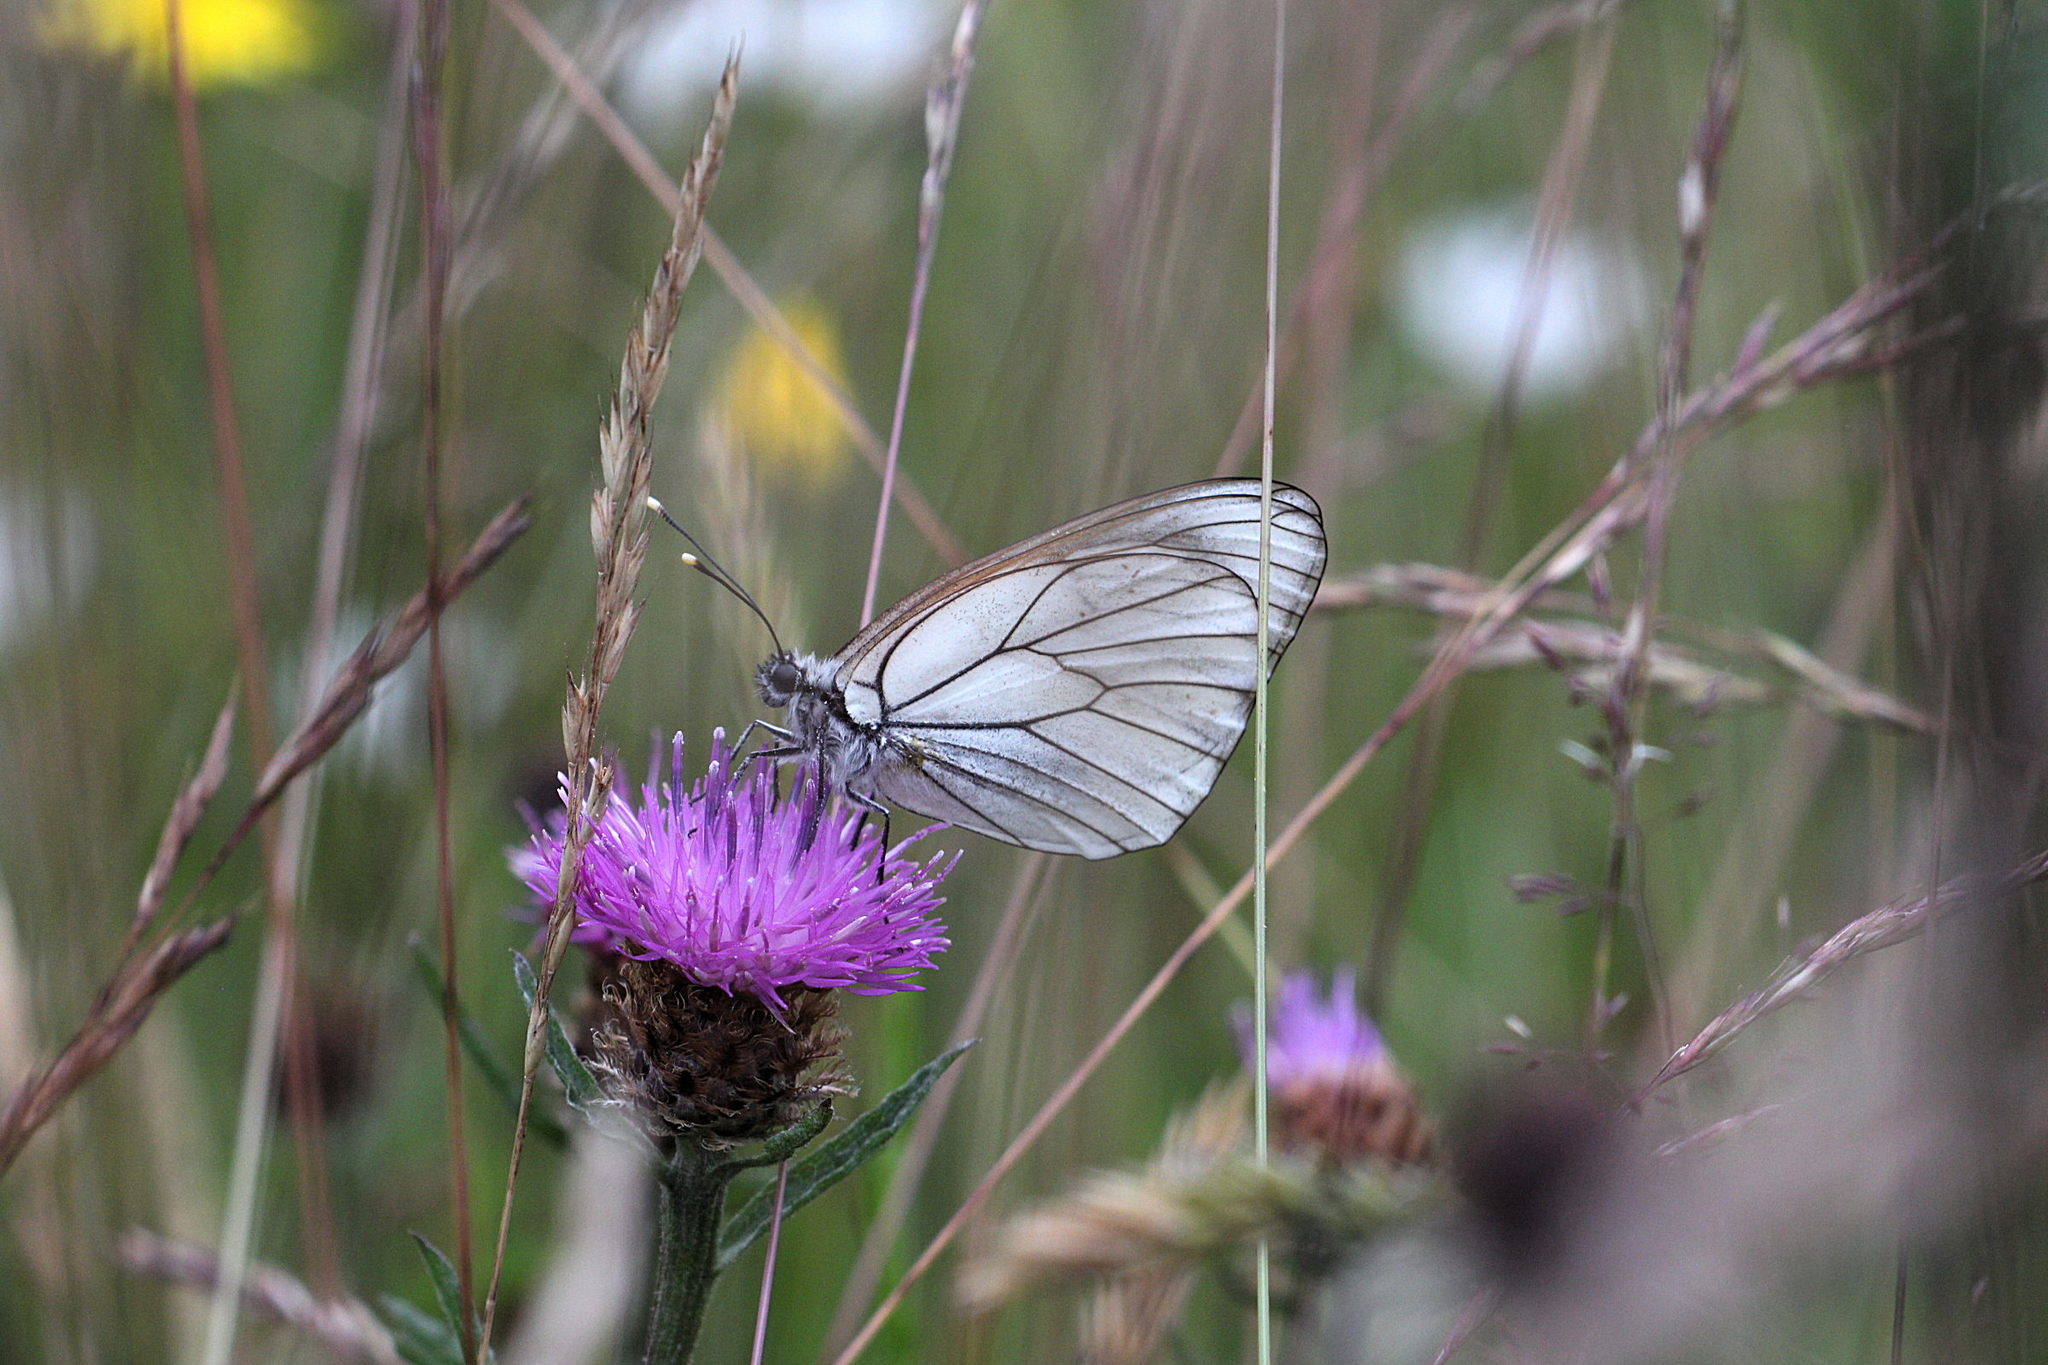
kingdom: Animalia
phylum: Arthropoda
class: Insecta
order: Lepidoptera
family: Pieridae
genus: Aporia
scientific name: Aporia crataegi
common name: Black-veined white
